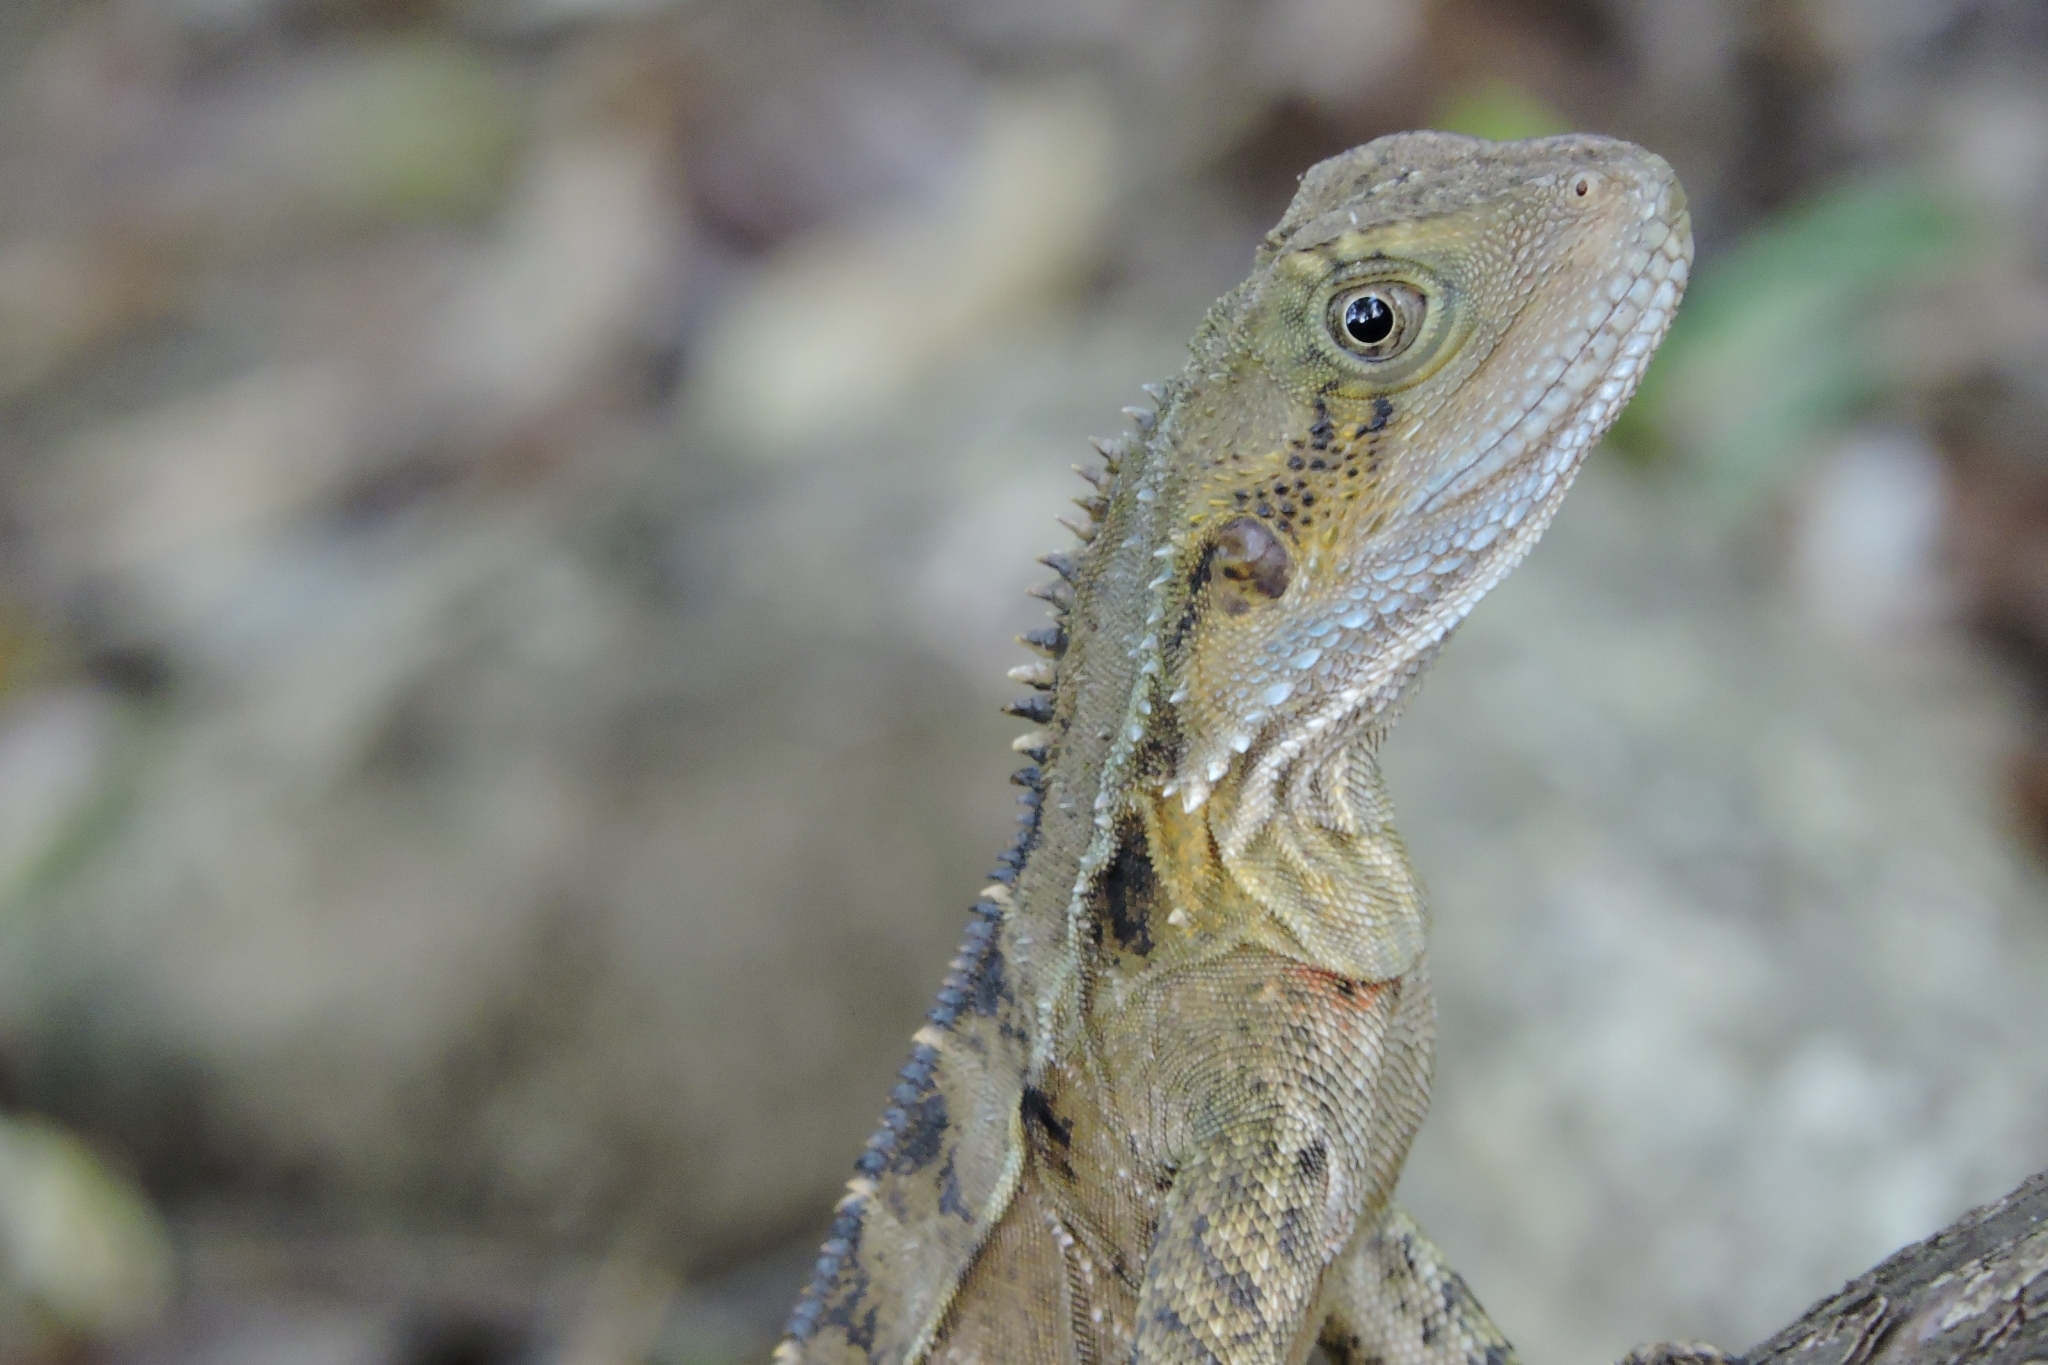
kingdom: Animalia
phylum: Chordata
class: Squamata
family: Agamidae
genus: Intellagama
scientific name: Intellagama lesueurii
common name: Eastern water dragon
